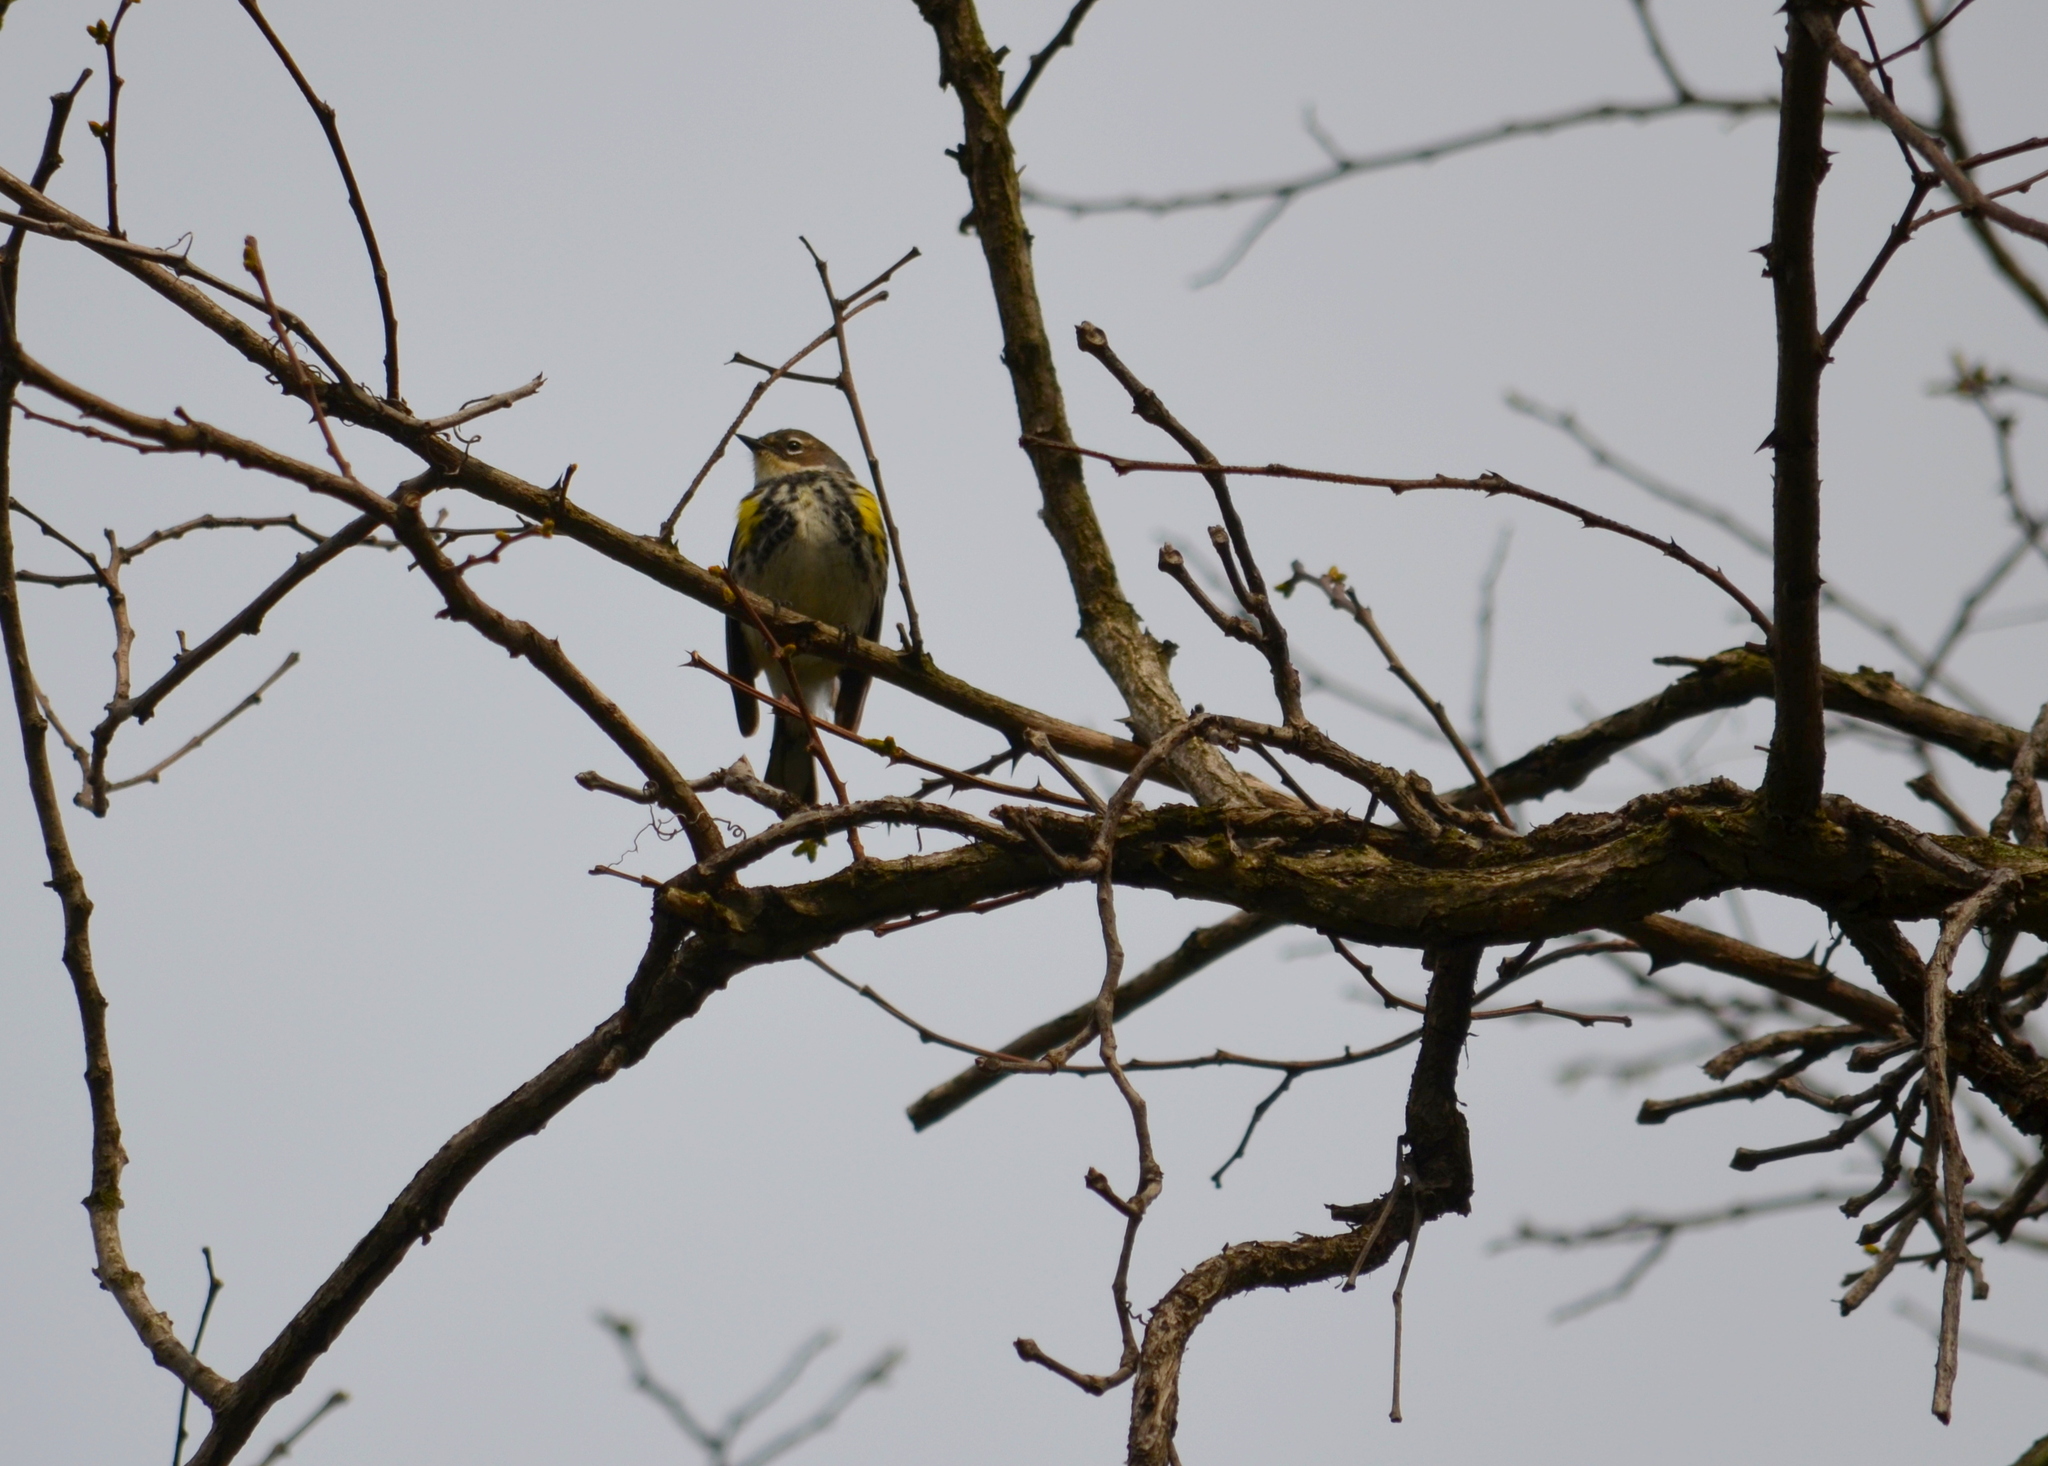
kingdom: Animalia
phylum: Chordata
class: Aves
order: Passeriformes
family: Parulidae
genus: Setophaga
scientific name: Setophaga coronata
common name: Myrtle warbler
